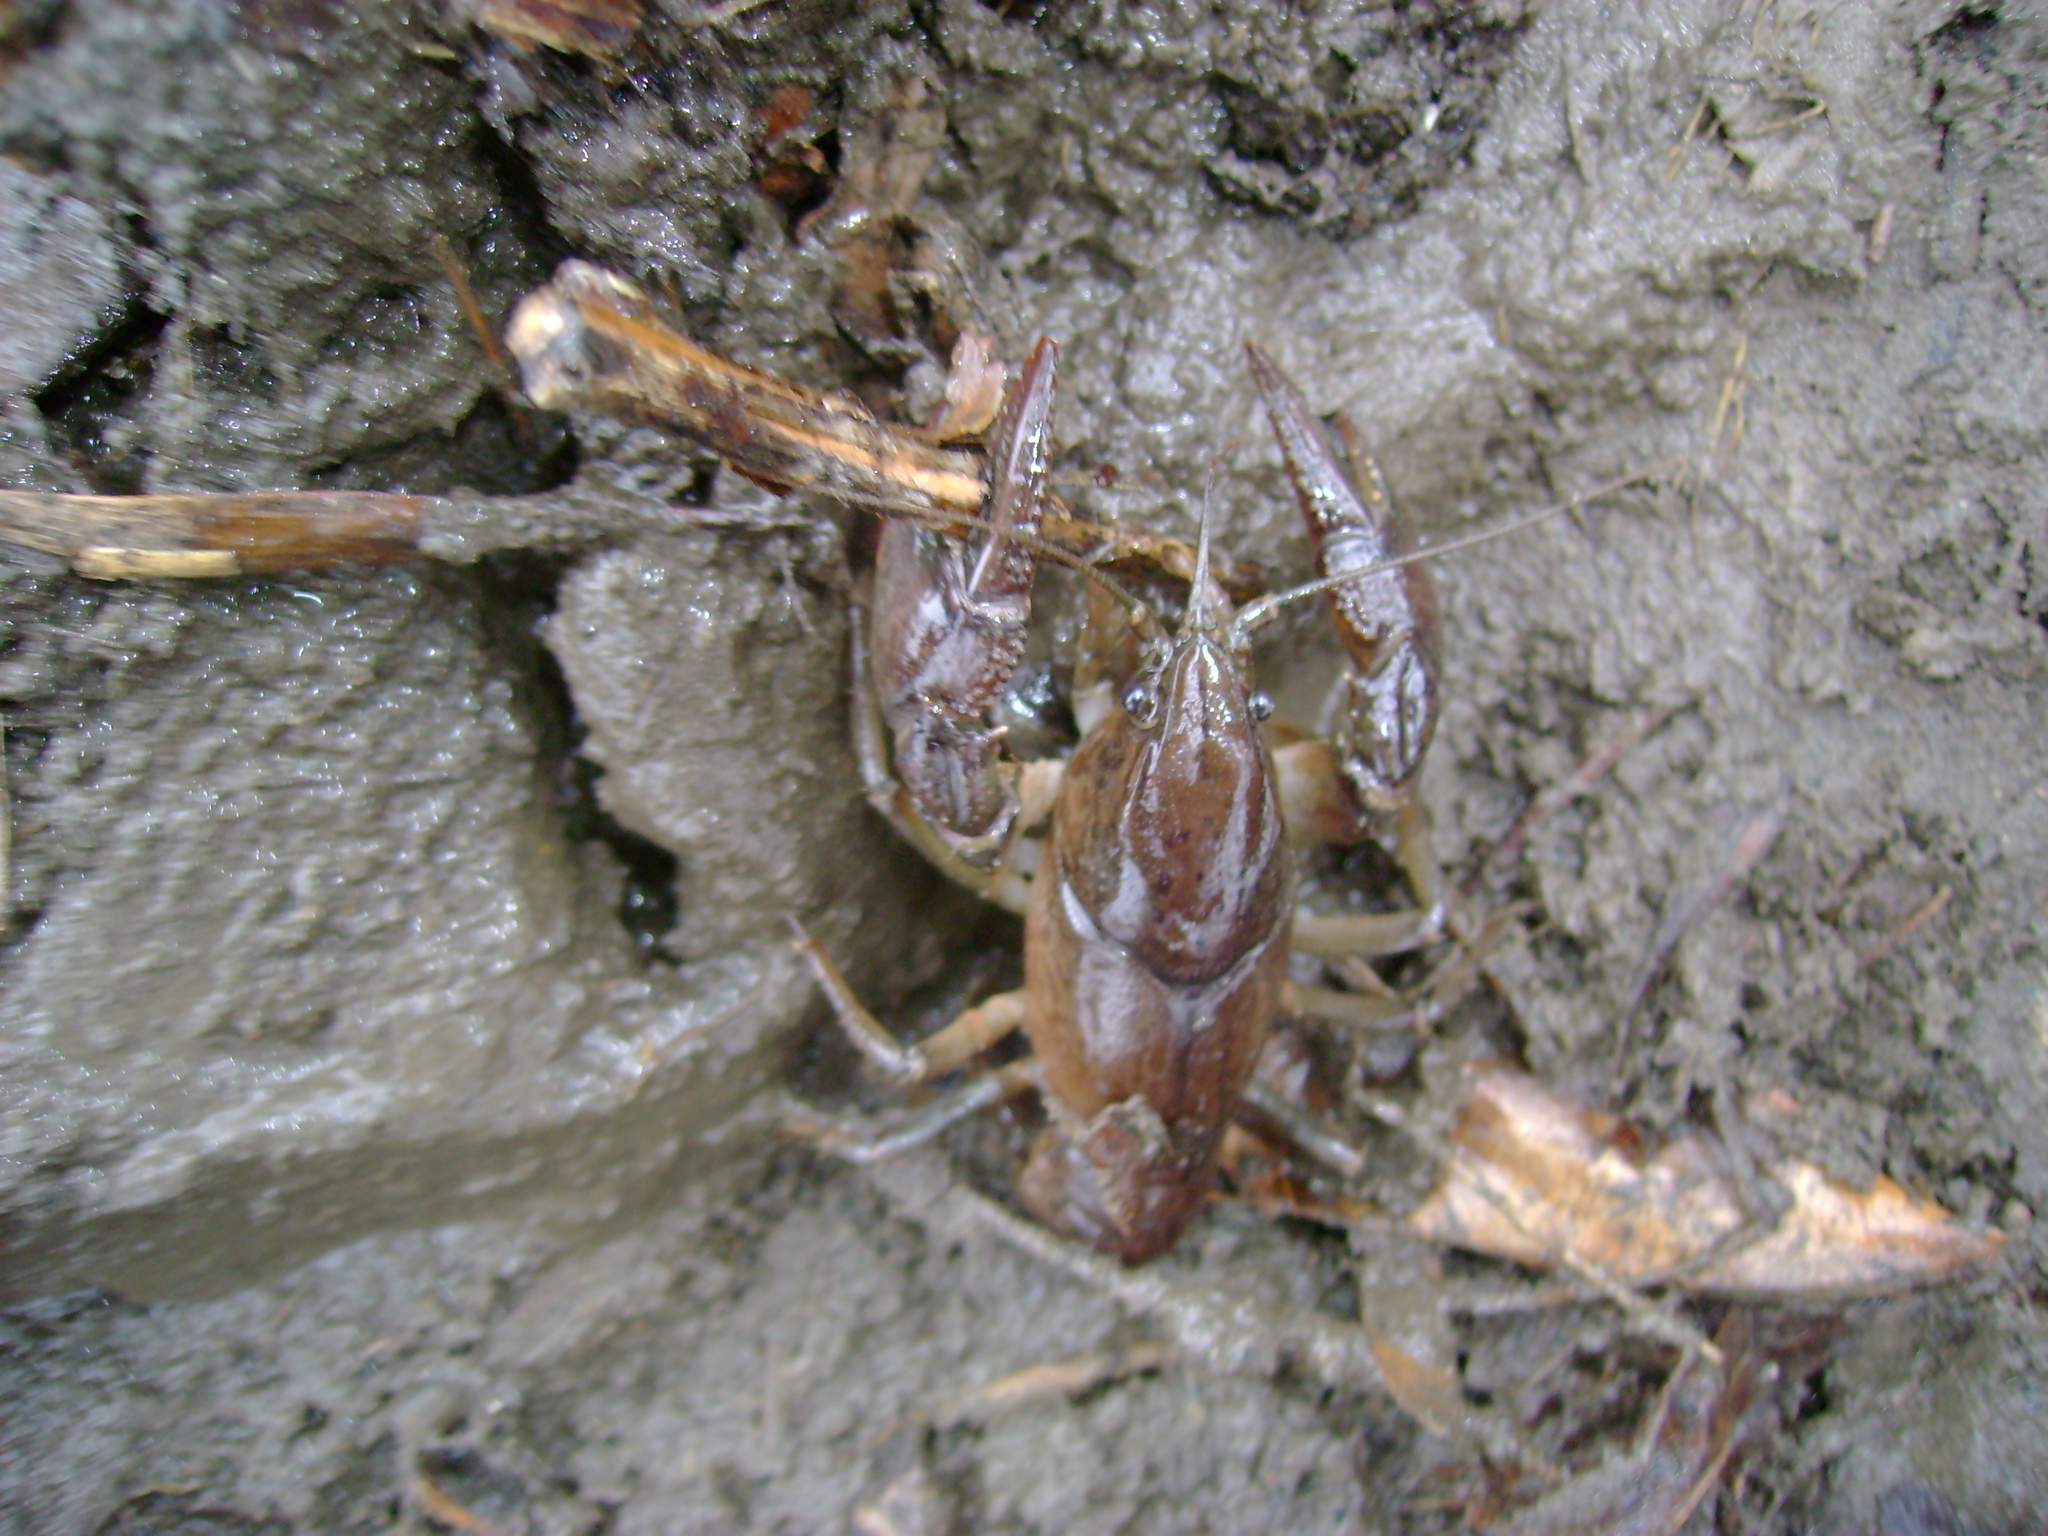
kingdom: Animalia
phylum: Arthropoda
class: Malacostraca
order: Decapoda
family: Cambaridae
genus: Creaserinus
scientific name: Creaserinus fodiens
